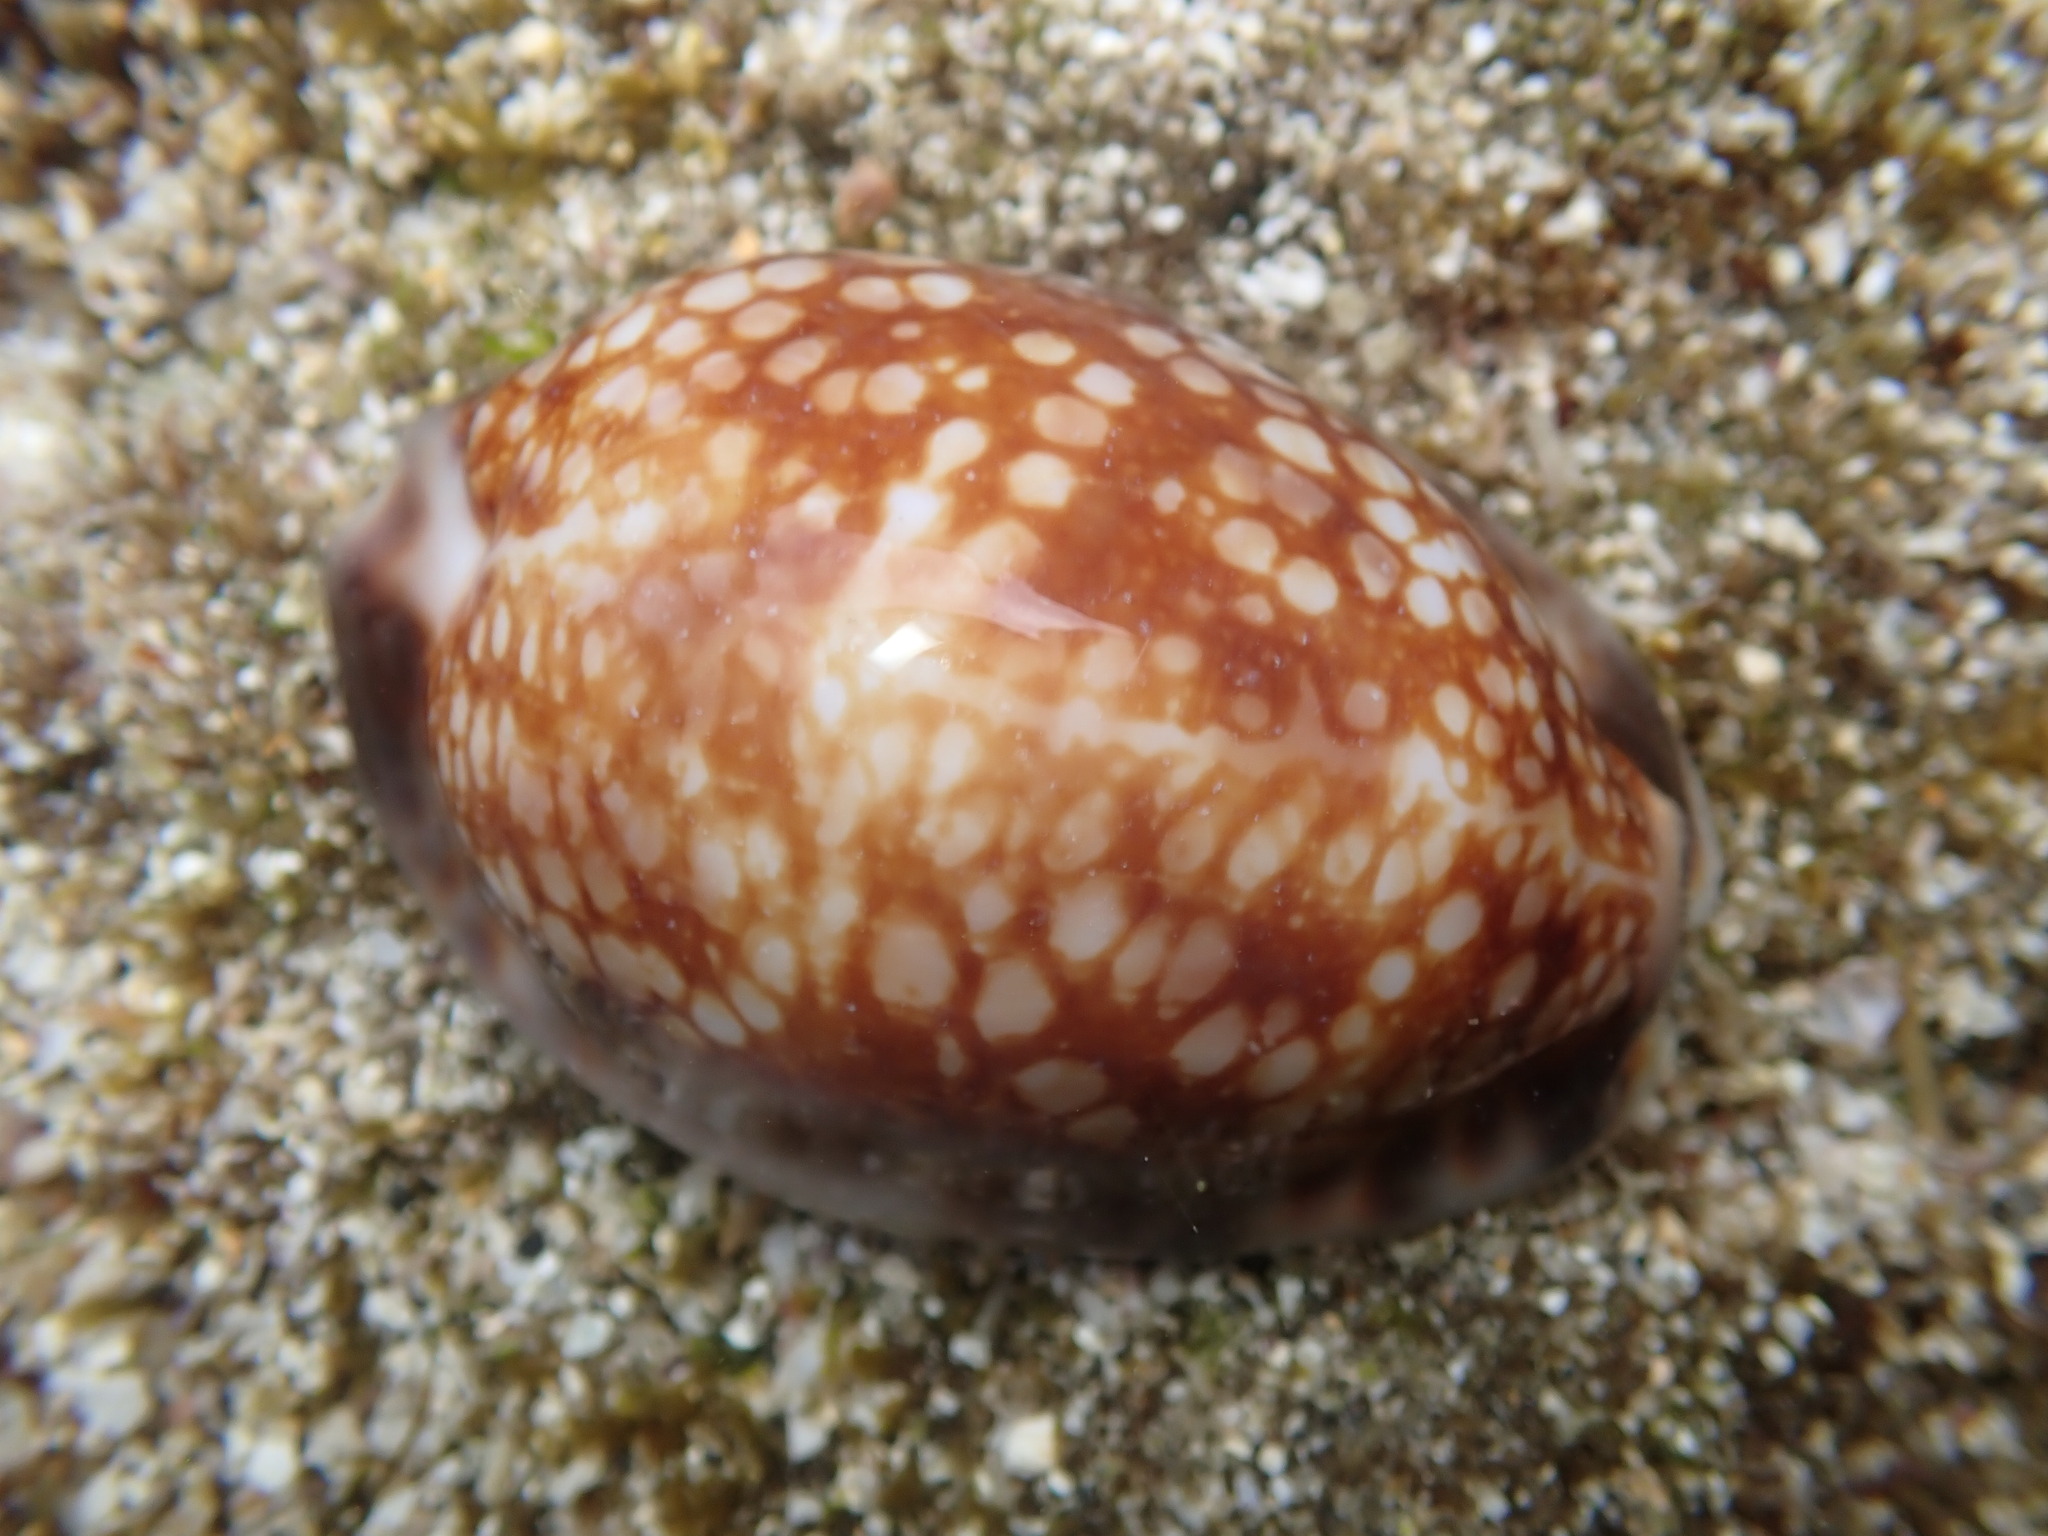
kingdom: Animalia
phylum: Mollusca
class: Gastropoda
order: Littorinimorpha
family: Cypraeidae
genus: Mauritia
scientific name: Mauritia maculifera
